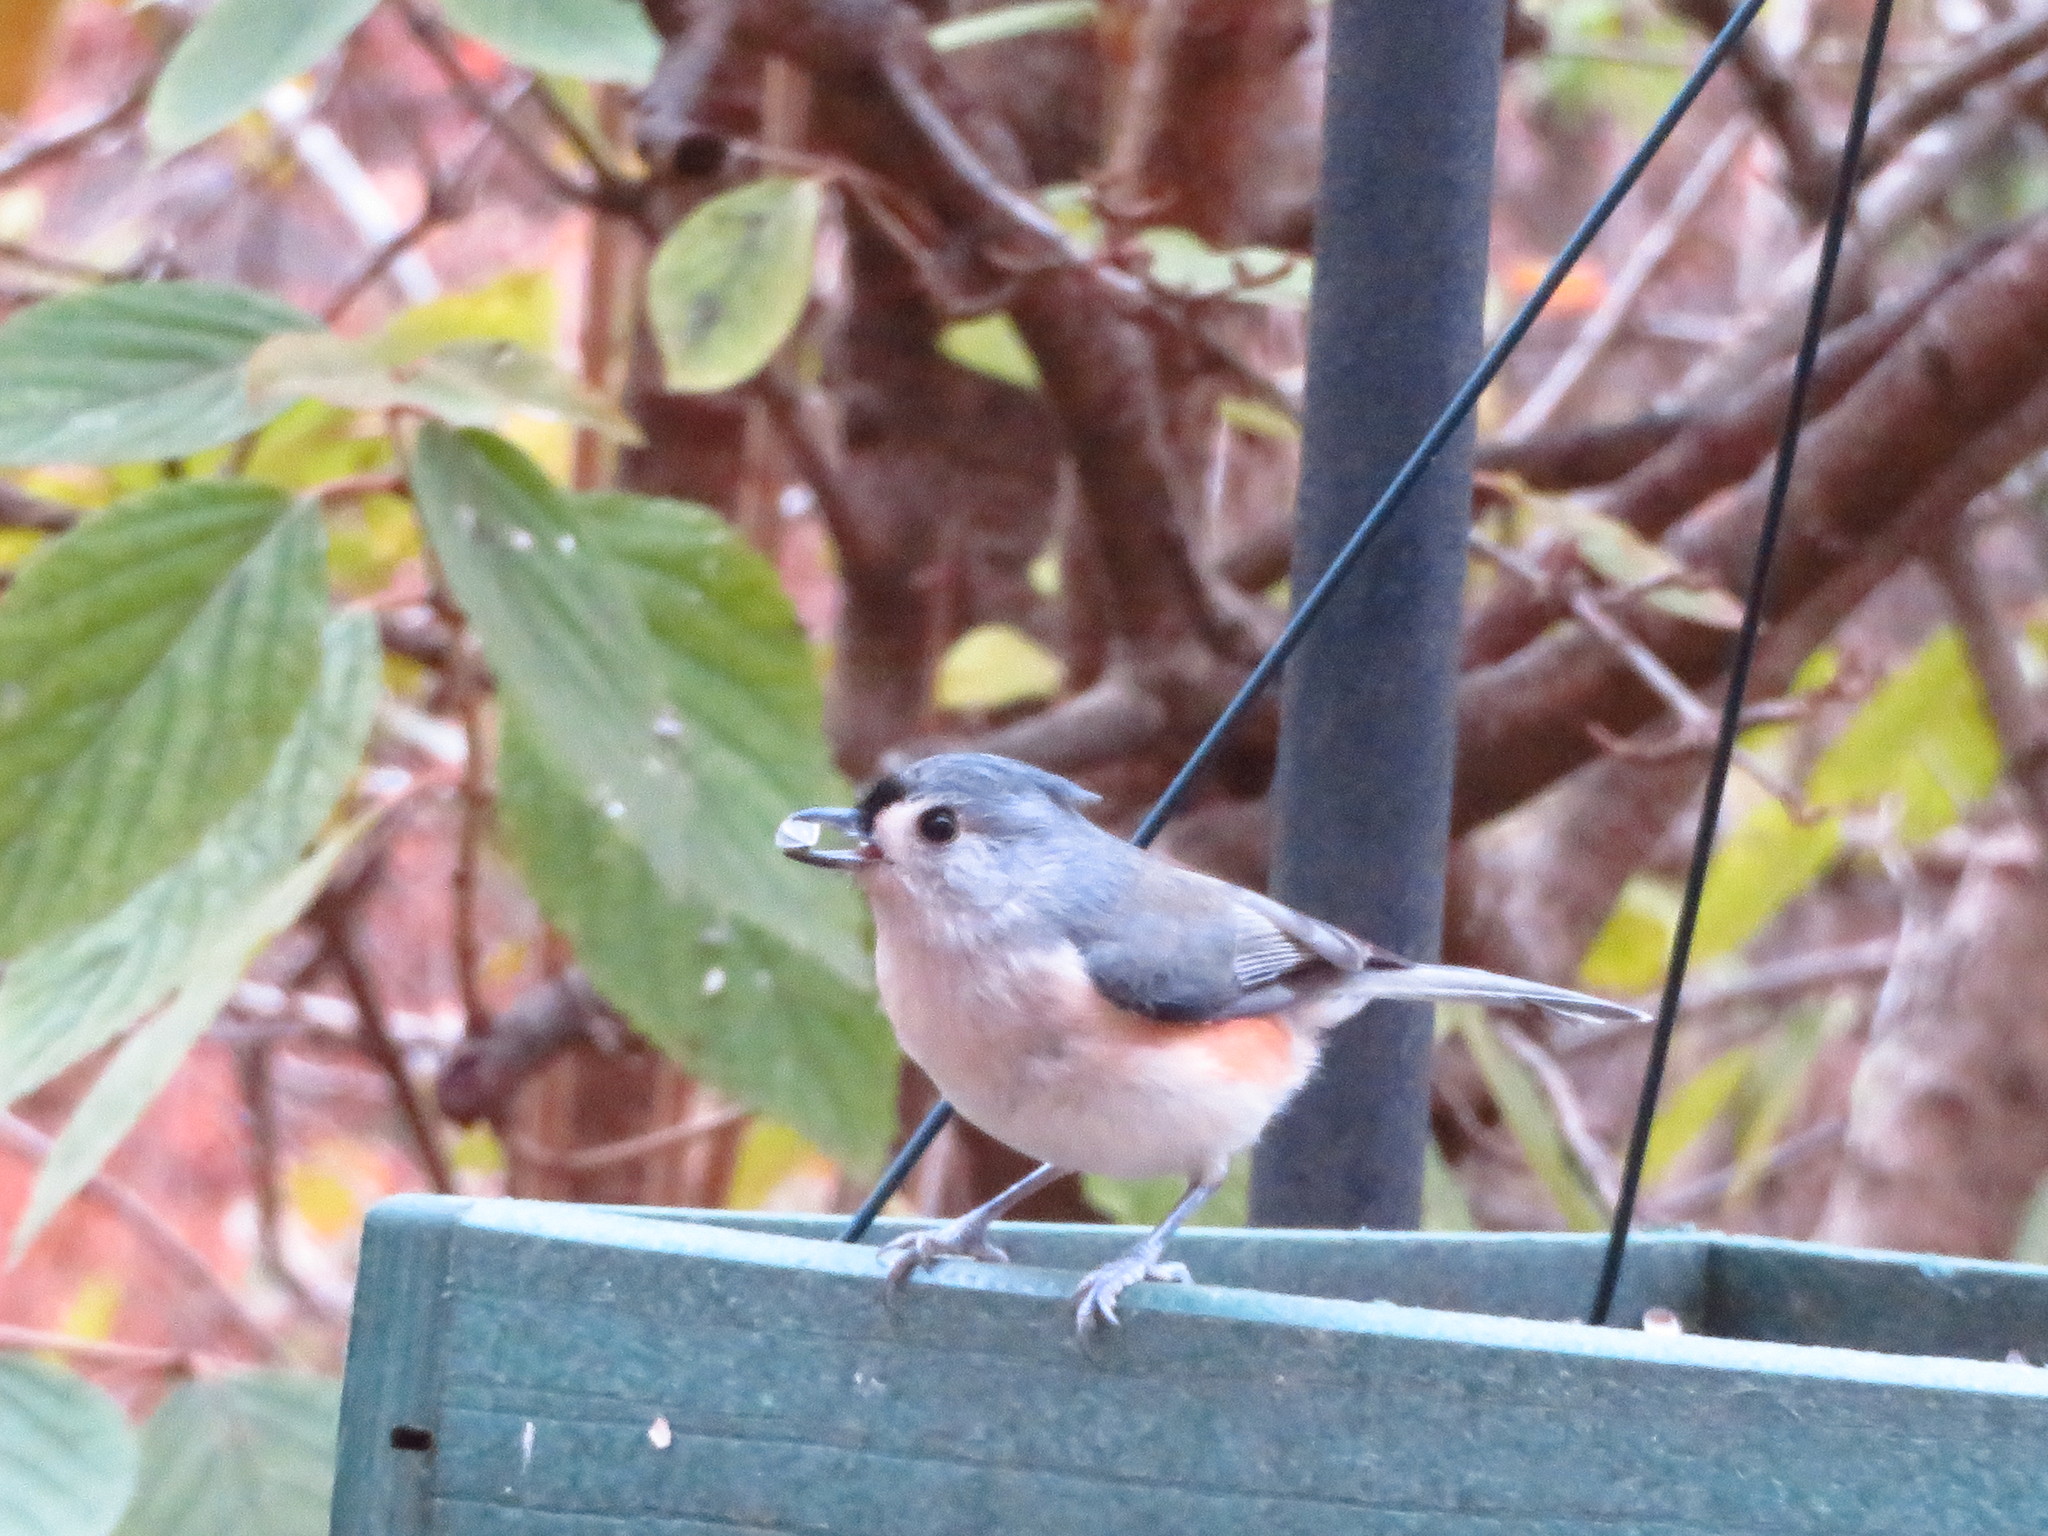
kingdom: Animalia
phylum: Chordata
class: Aves
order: Passeriformes
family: Paridae
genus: Baeolophus
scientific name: Baeolophus bicolor
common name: Tufted titmouse
